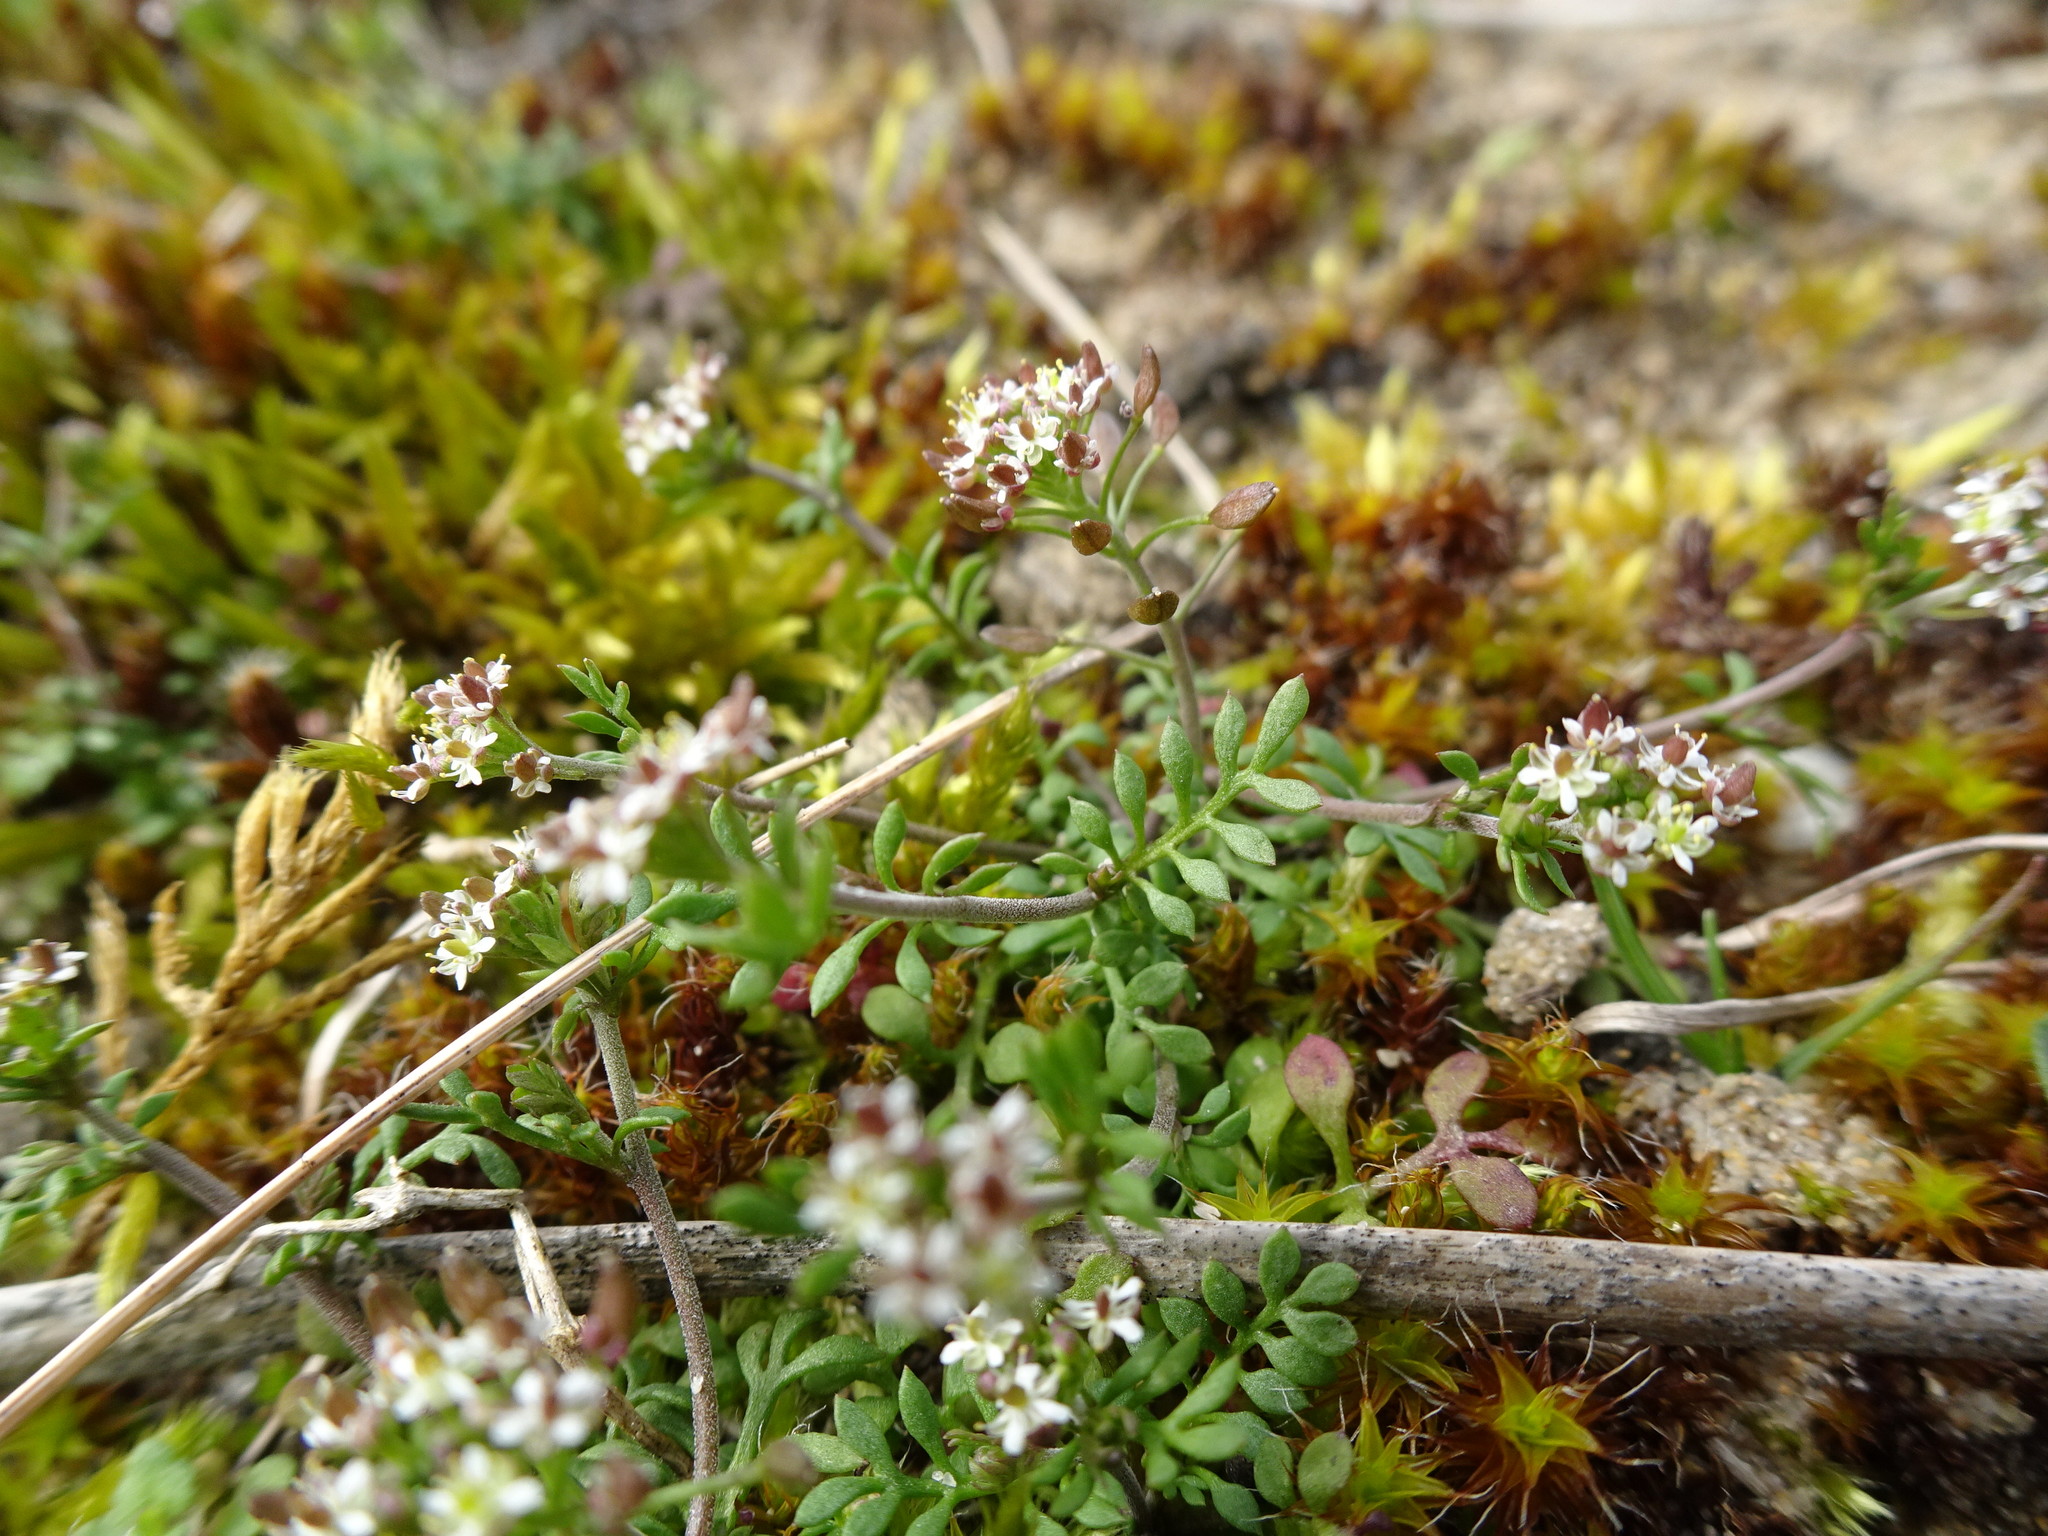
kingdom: Plantae
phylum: Tracheophyta
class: Magnoliopsida
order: Brassicales
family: Brassicaceae
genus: Hornungia
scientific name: Hornungia petraea
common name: Hutchinsia
